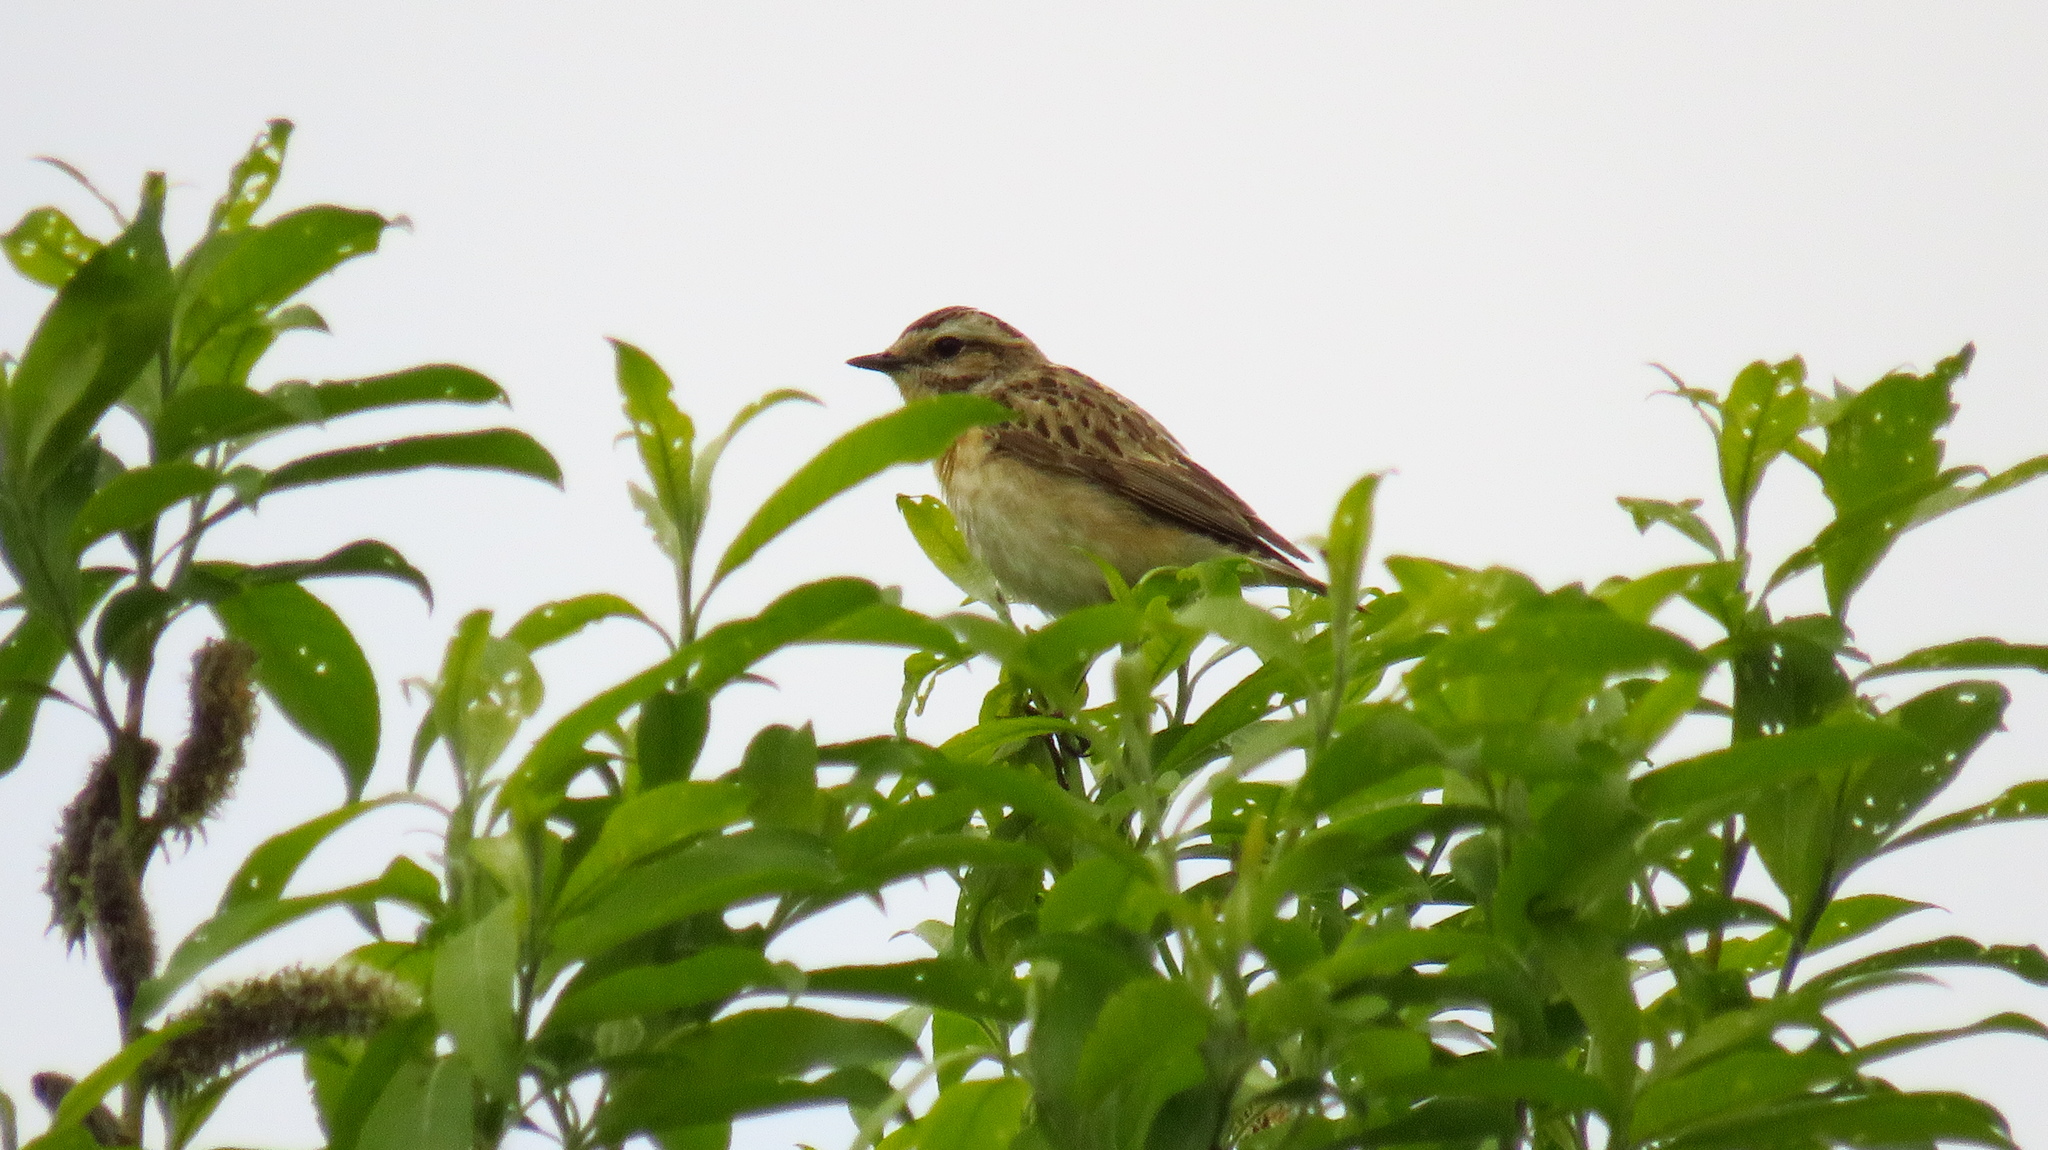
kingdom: Animalia
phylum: Chordata
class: Aves
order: Passeriformes
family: Muscicapidae
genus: Saxicola
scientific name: Saxicola rubetra
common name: Whinchat
